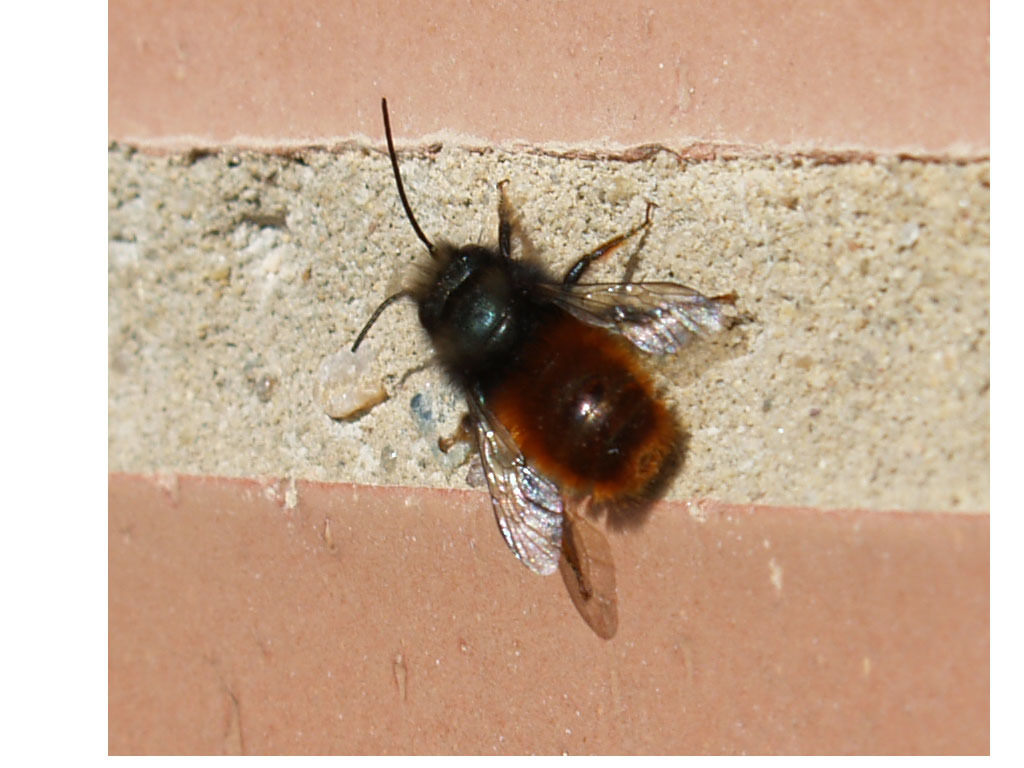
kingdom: Animalia
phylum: Arthropoda
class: Insecta
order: Hymenoptera
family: Megachilidae
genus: Osmia
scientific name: Osmia cornuta
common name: Mason bee
